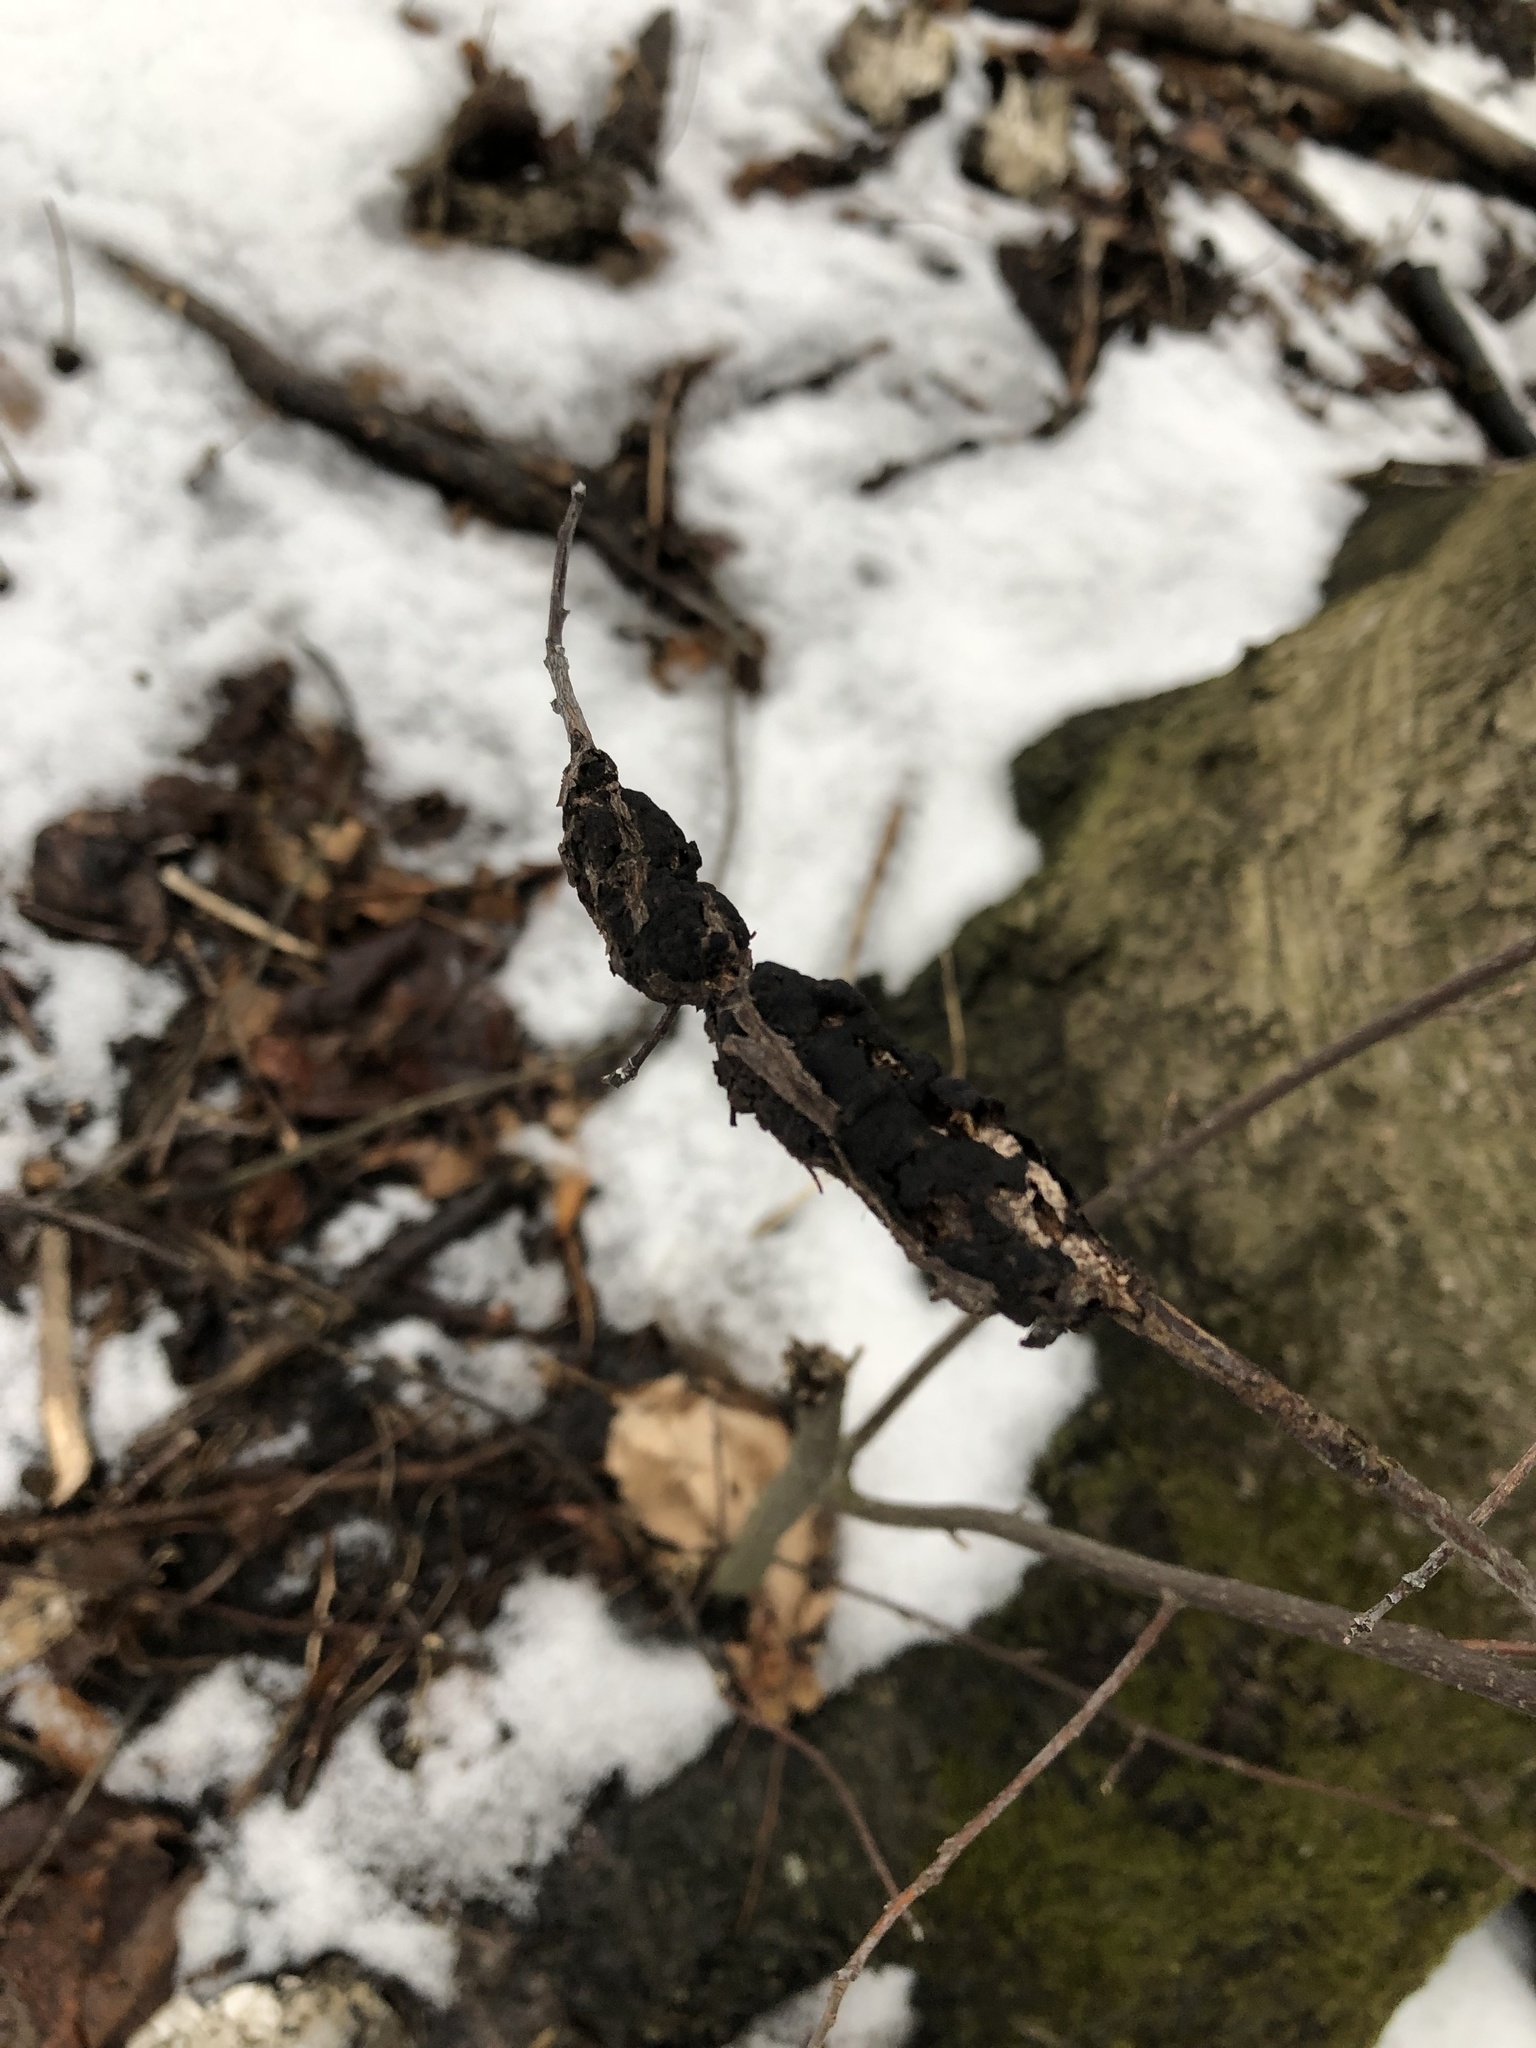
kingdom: Fungi
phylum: Ascomycota
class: Dothideomycetes
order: Venturiales
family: Venturiaceae
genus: Apiosporina
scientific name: Apiosporina morbosa
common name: Black knot
